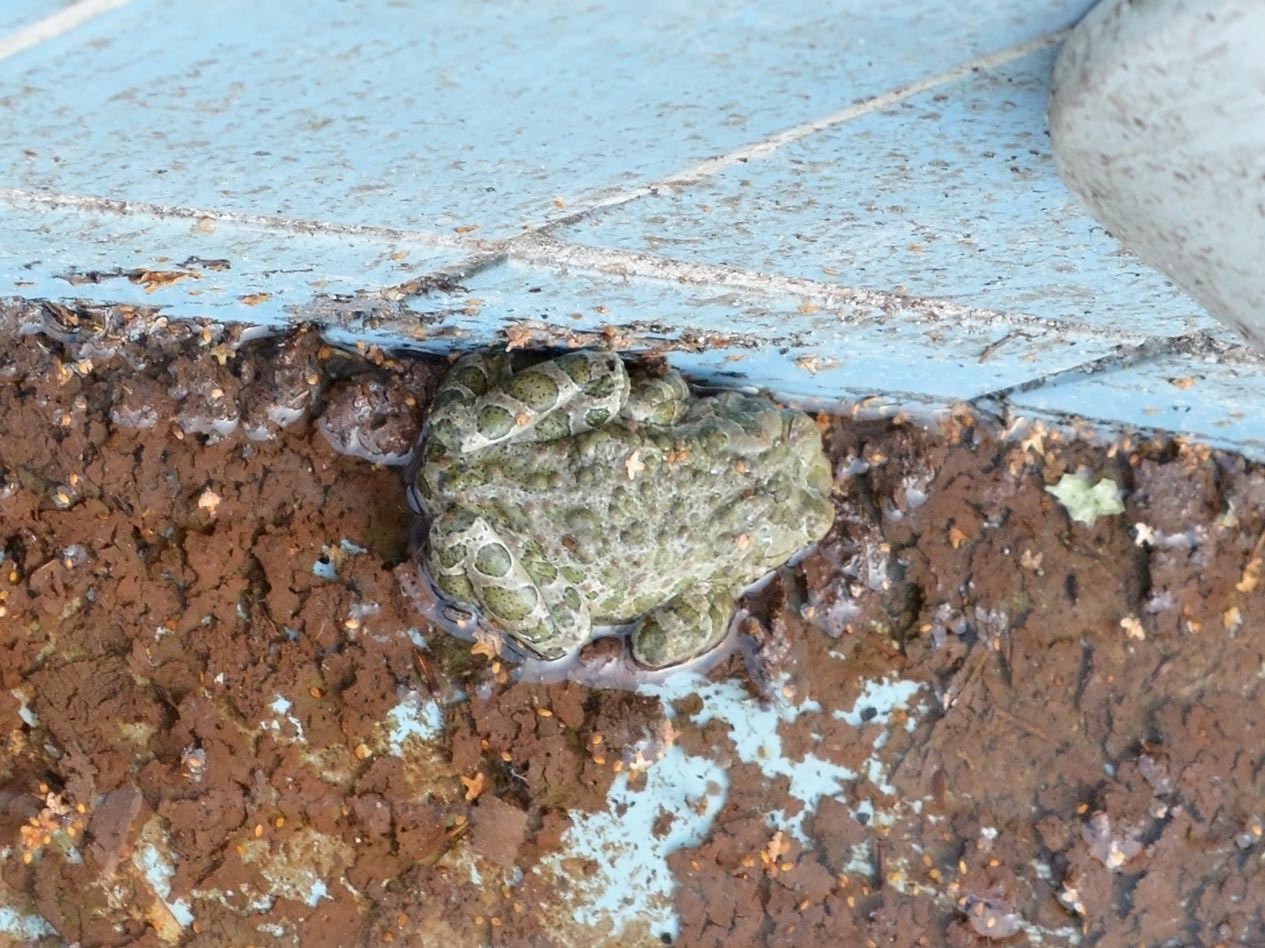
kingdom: Animalia
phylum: Chordata
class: Amphibia
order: Anura
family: Bufonidae
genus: Bufotes
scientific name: Bufotes viridis
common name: European green toad
